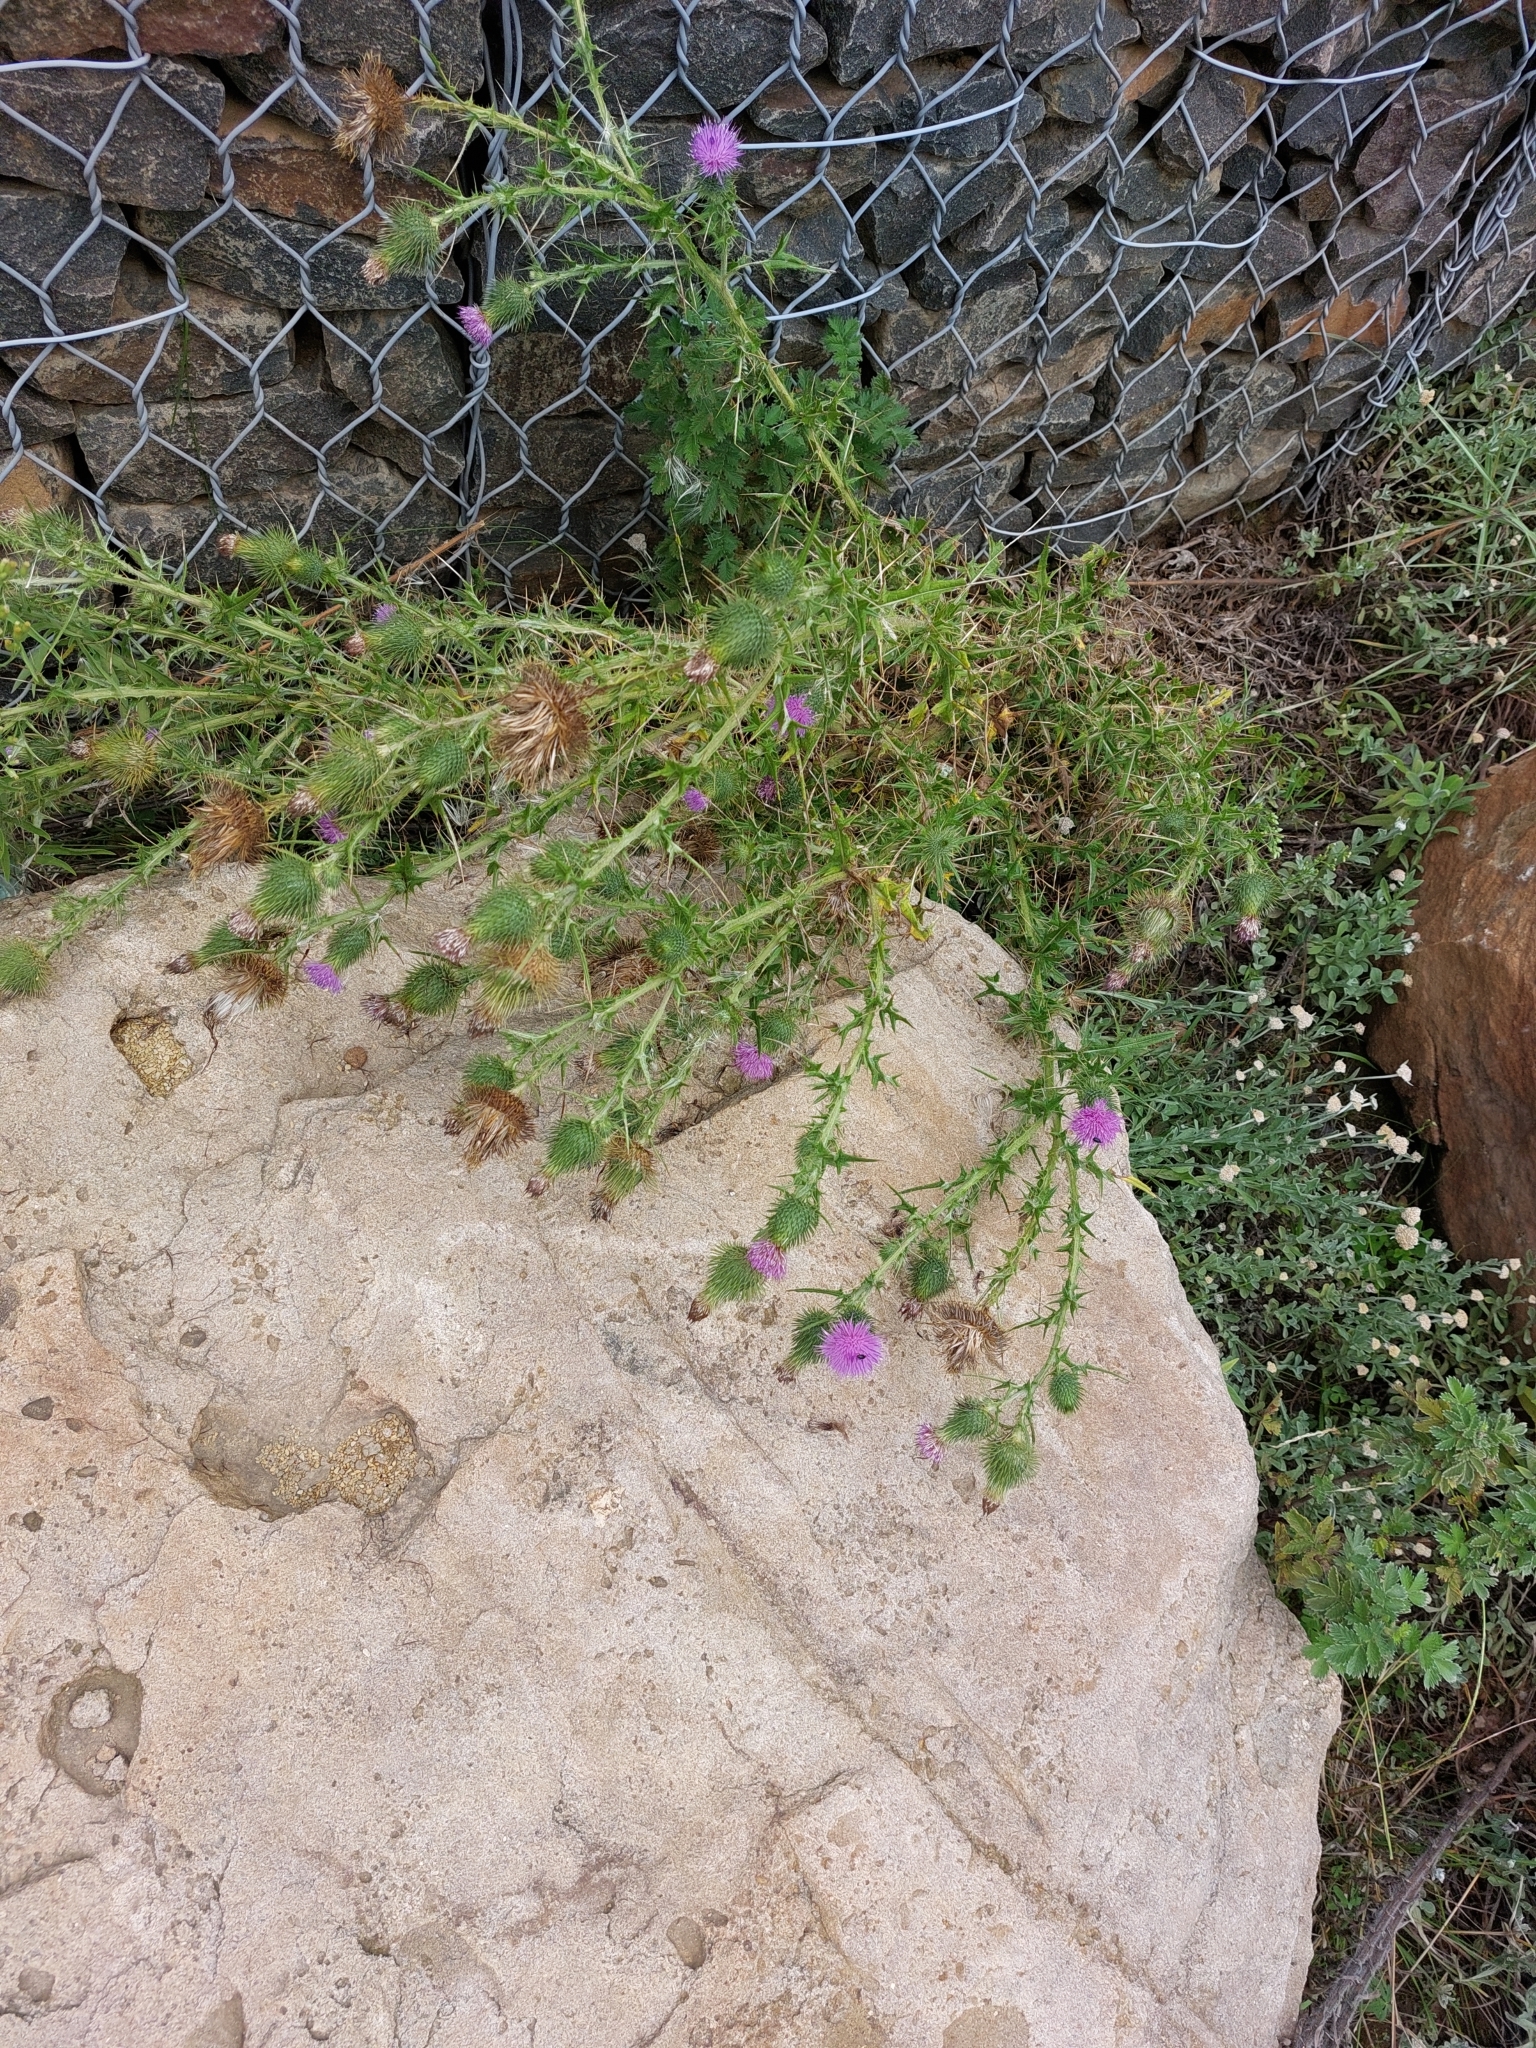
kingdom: Plantae
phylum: Tracheophyta
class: Magnoliopsida
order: Asterales
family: Asteraceae
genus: Cirsium
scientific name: Cirsium vulgare
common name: Bull thistle
